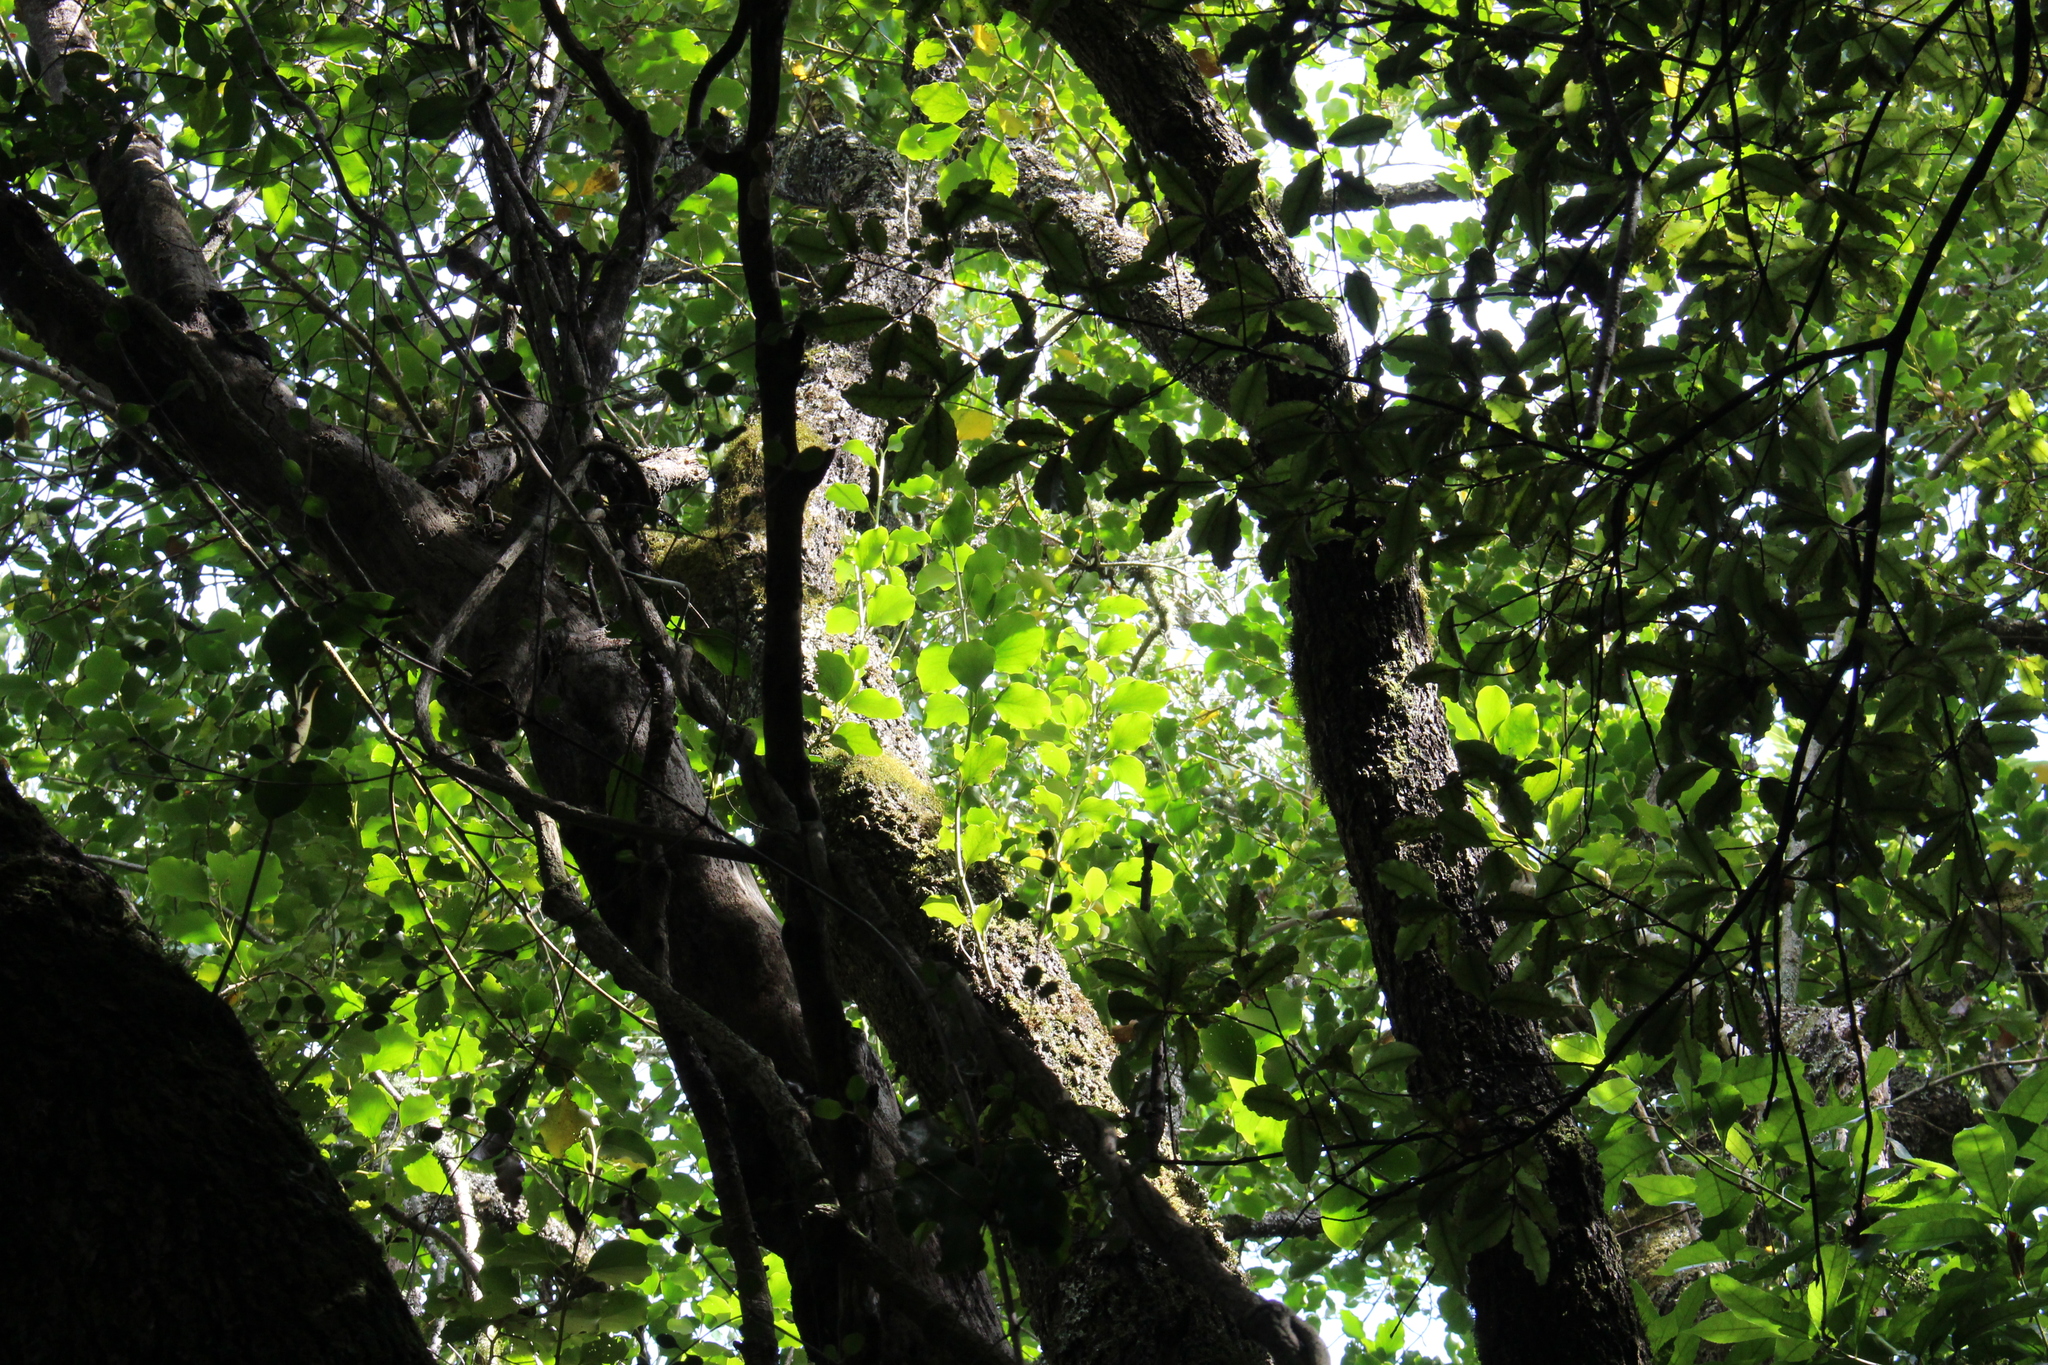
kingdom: Plantae
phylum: Tracheophyta
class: Magnoliopsida
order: Apiales
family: Griseliniaceae
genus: Griselinia
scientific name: Griselinia littoralis
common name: New zealand broadleaf
